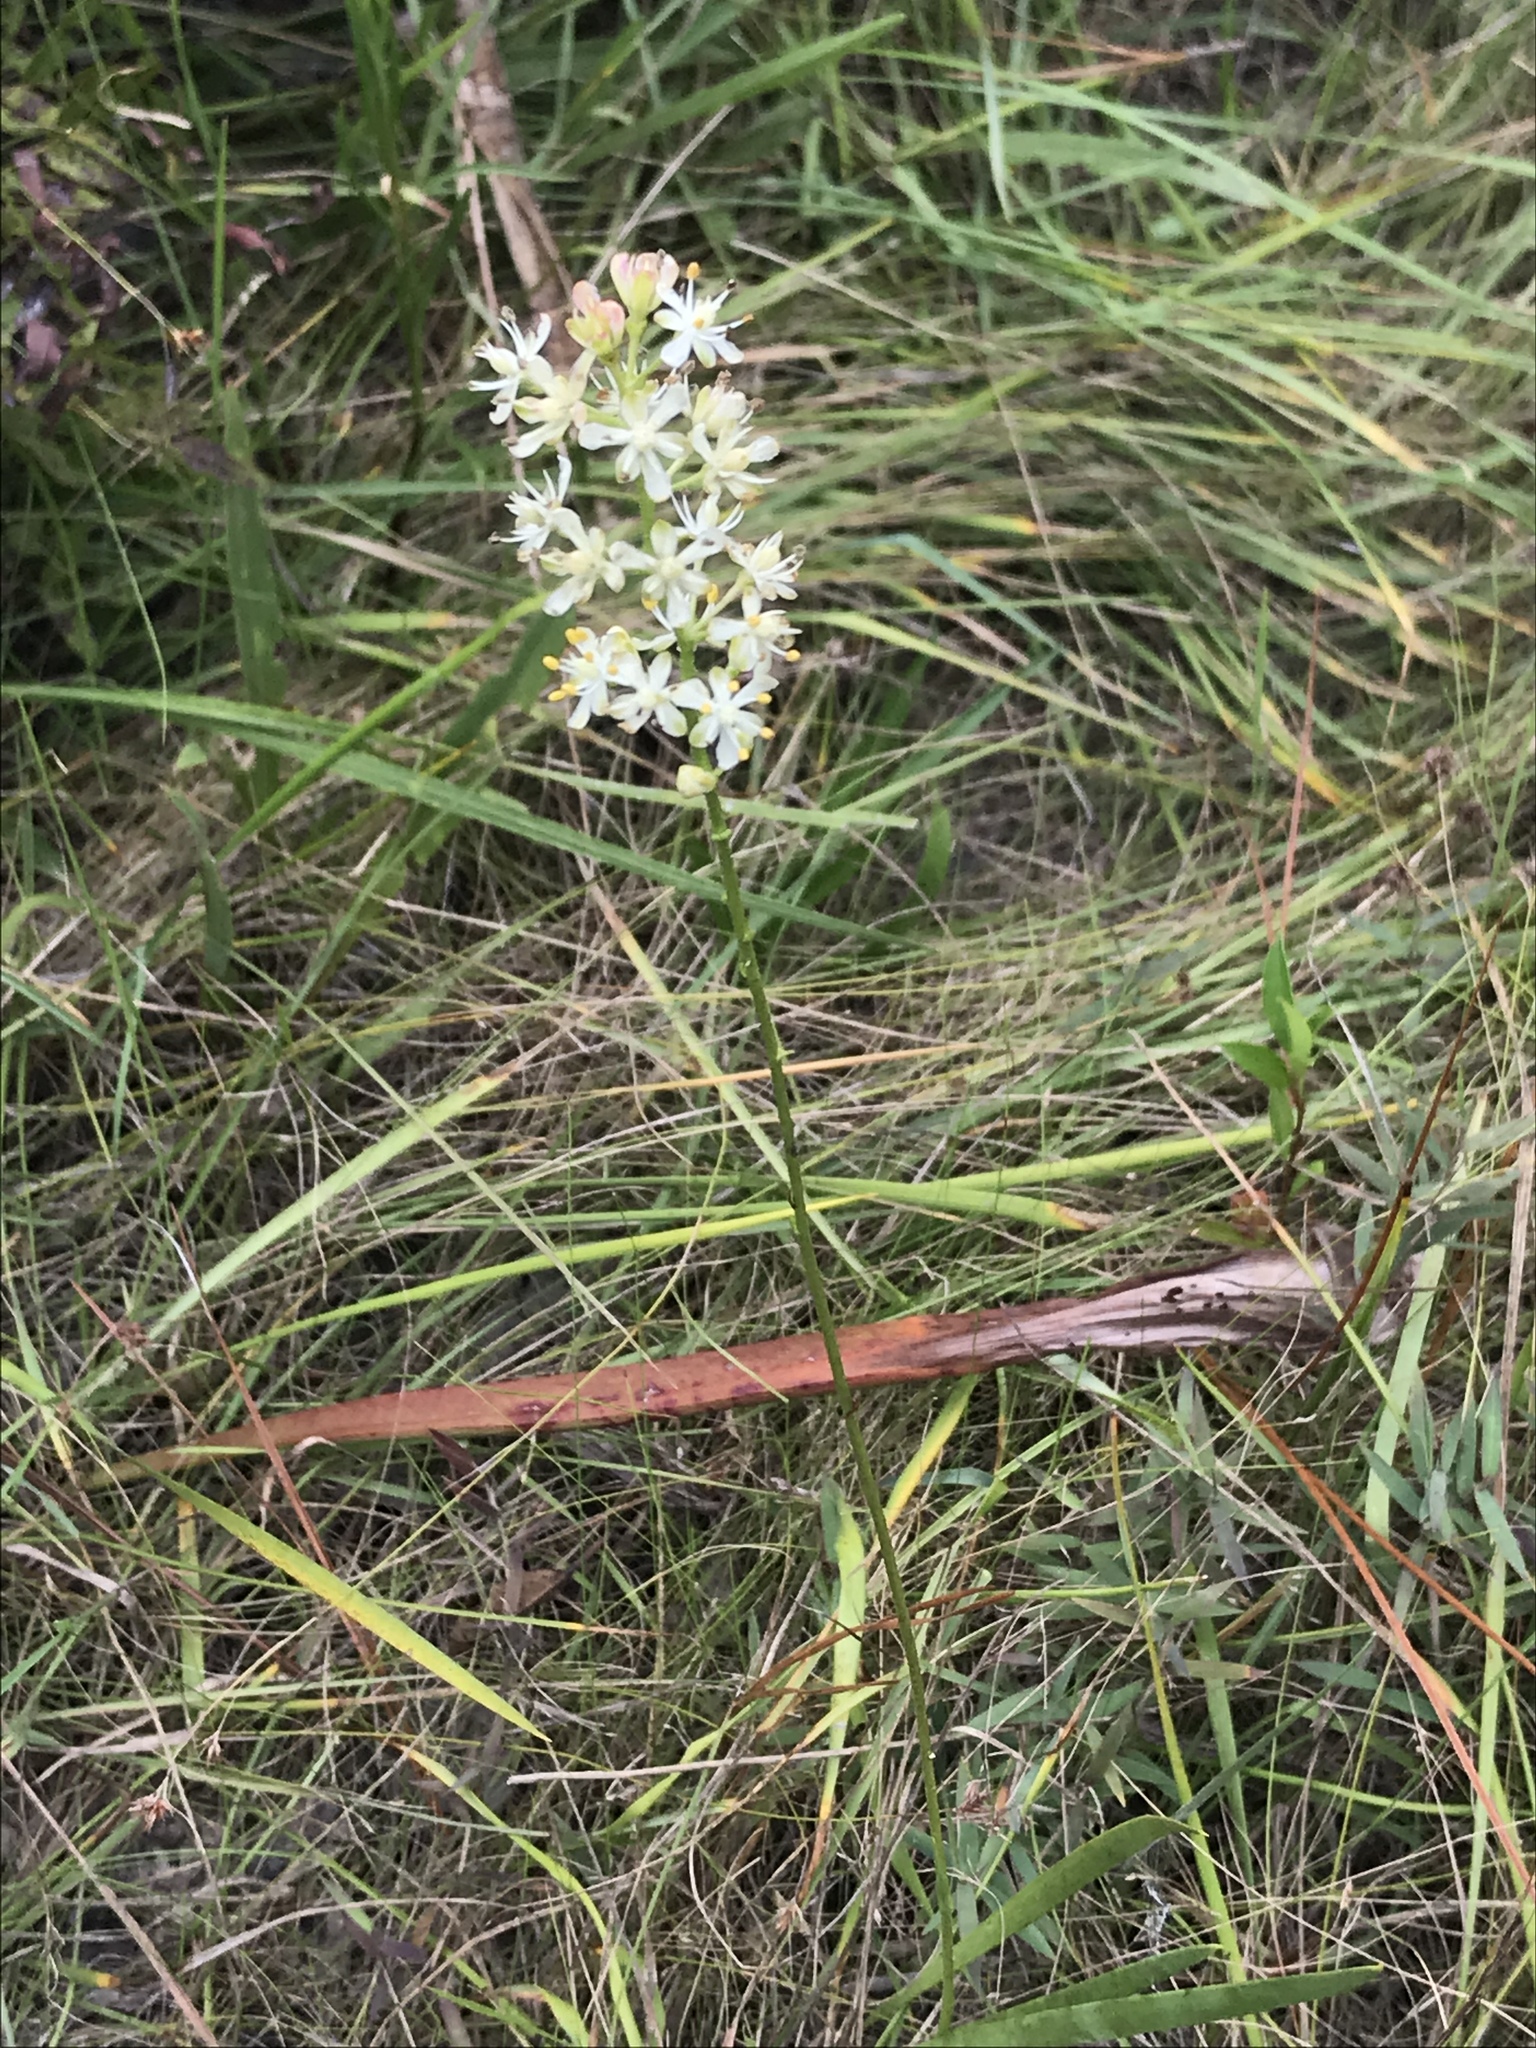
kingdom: Plantae
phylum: Tracheophyta
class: Liliopsida
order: Alismatales
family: Tofieldiaceae
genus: Triantha
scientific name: Triantha racemosa
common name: Coastal false asphodel
